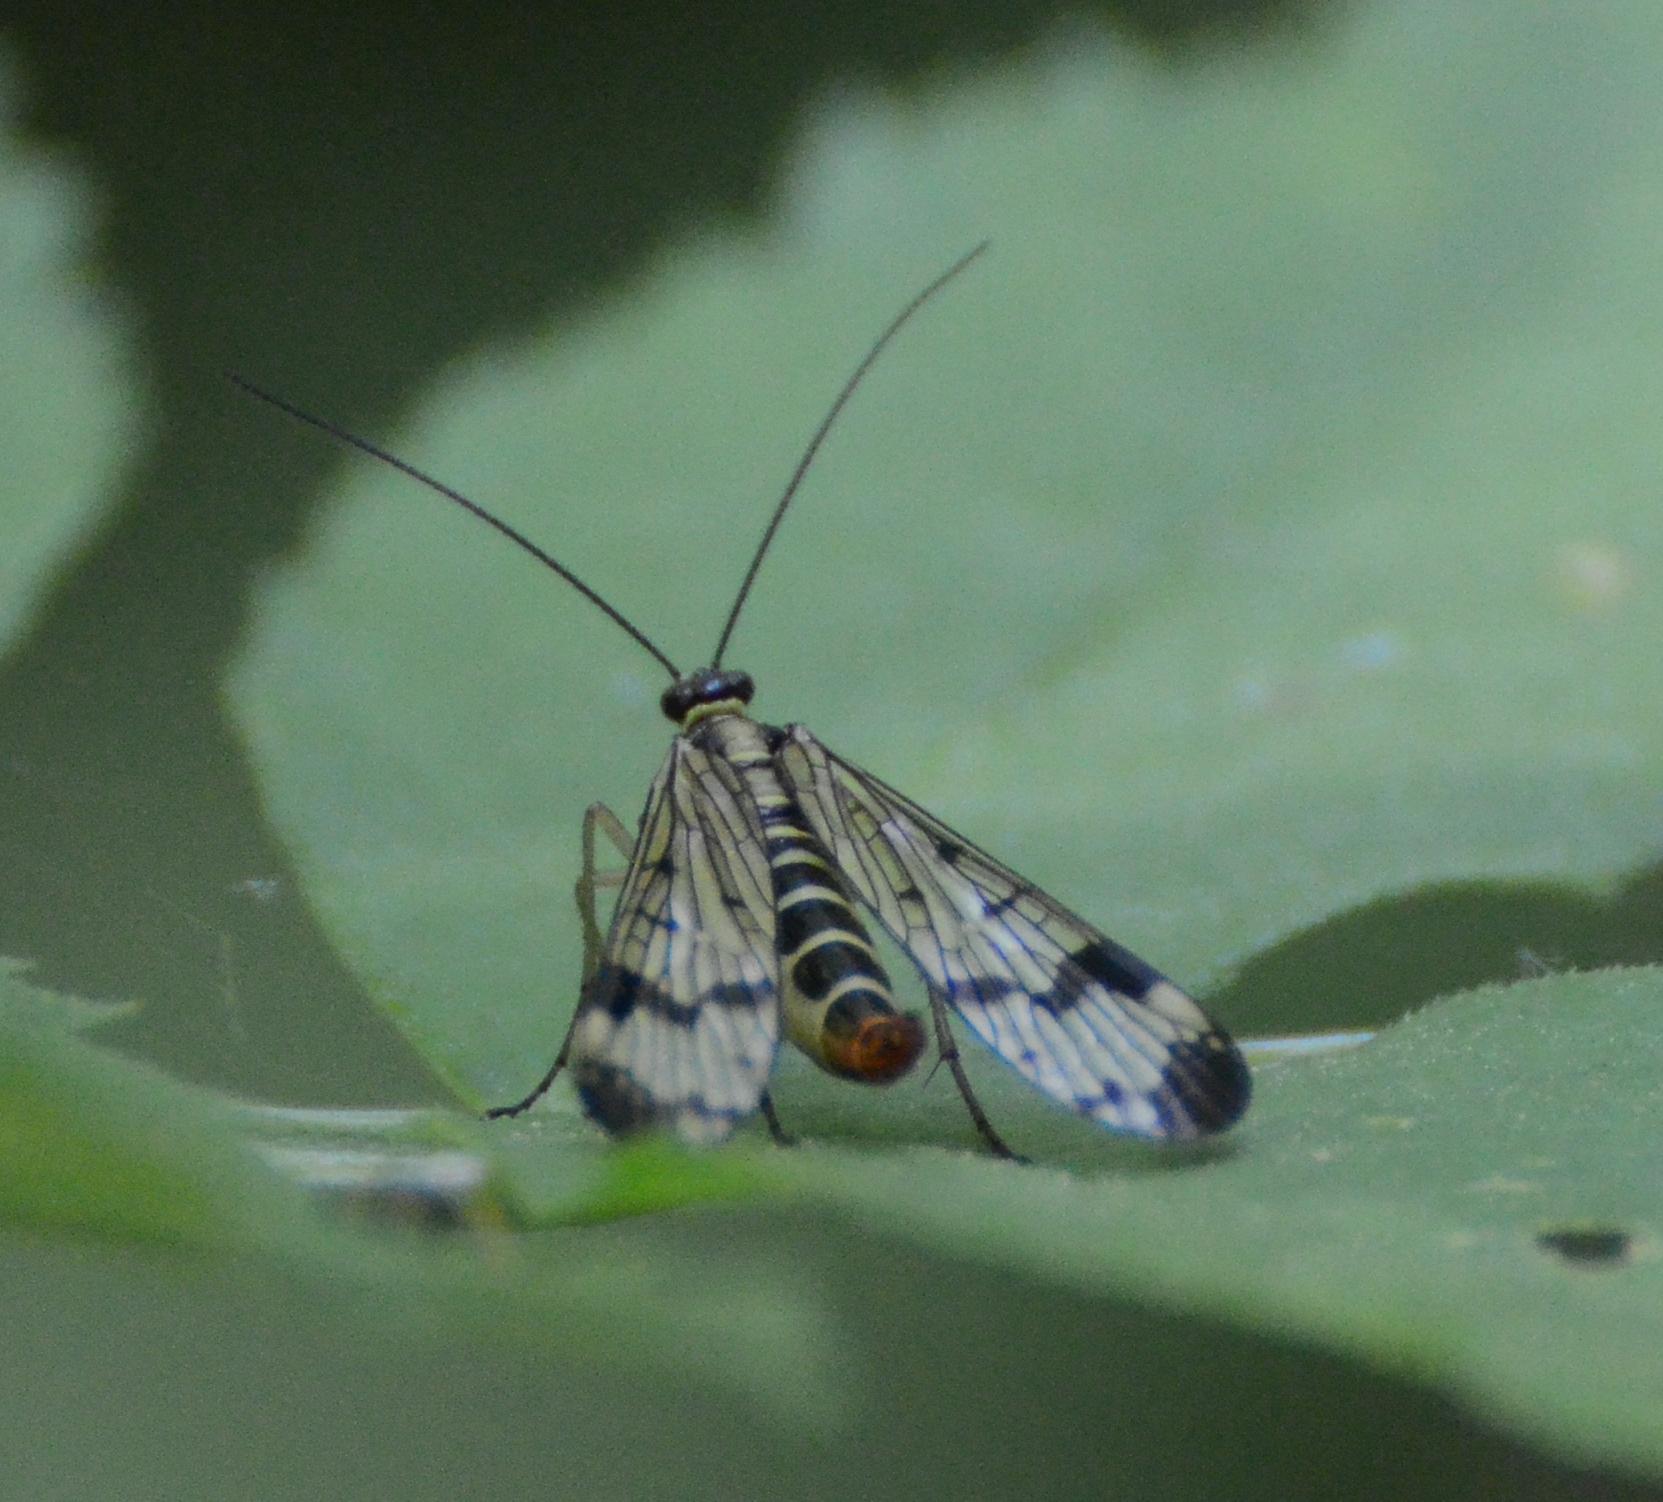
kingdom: Animalia
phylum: Arthropoda
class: Insecta
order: Mecoptera
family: Panorpidae
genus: Panorpa
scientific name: Panorpa communis
